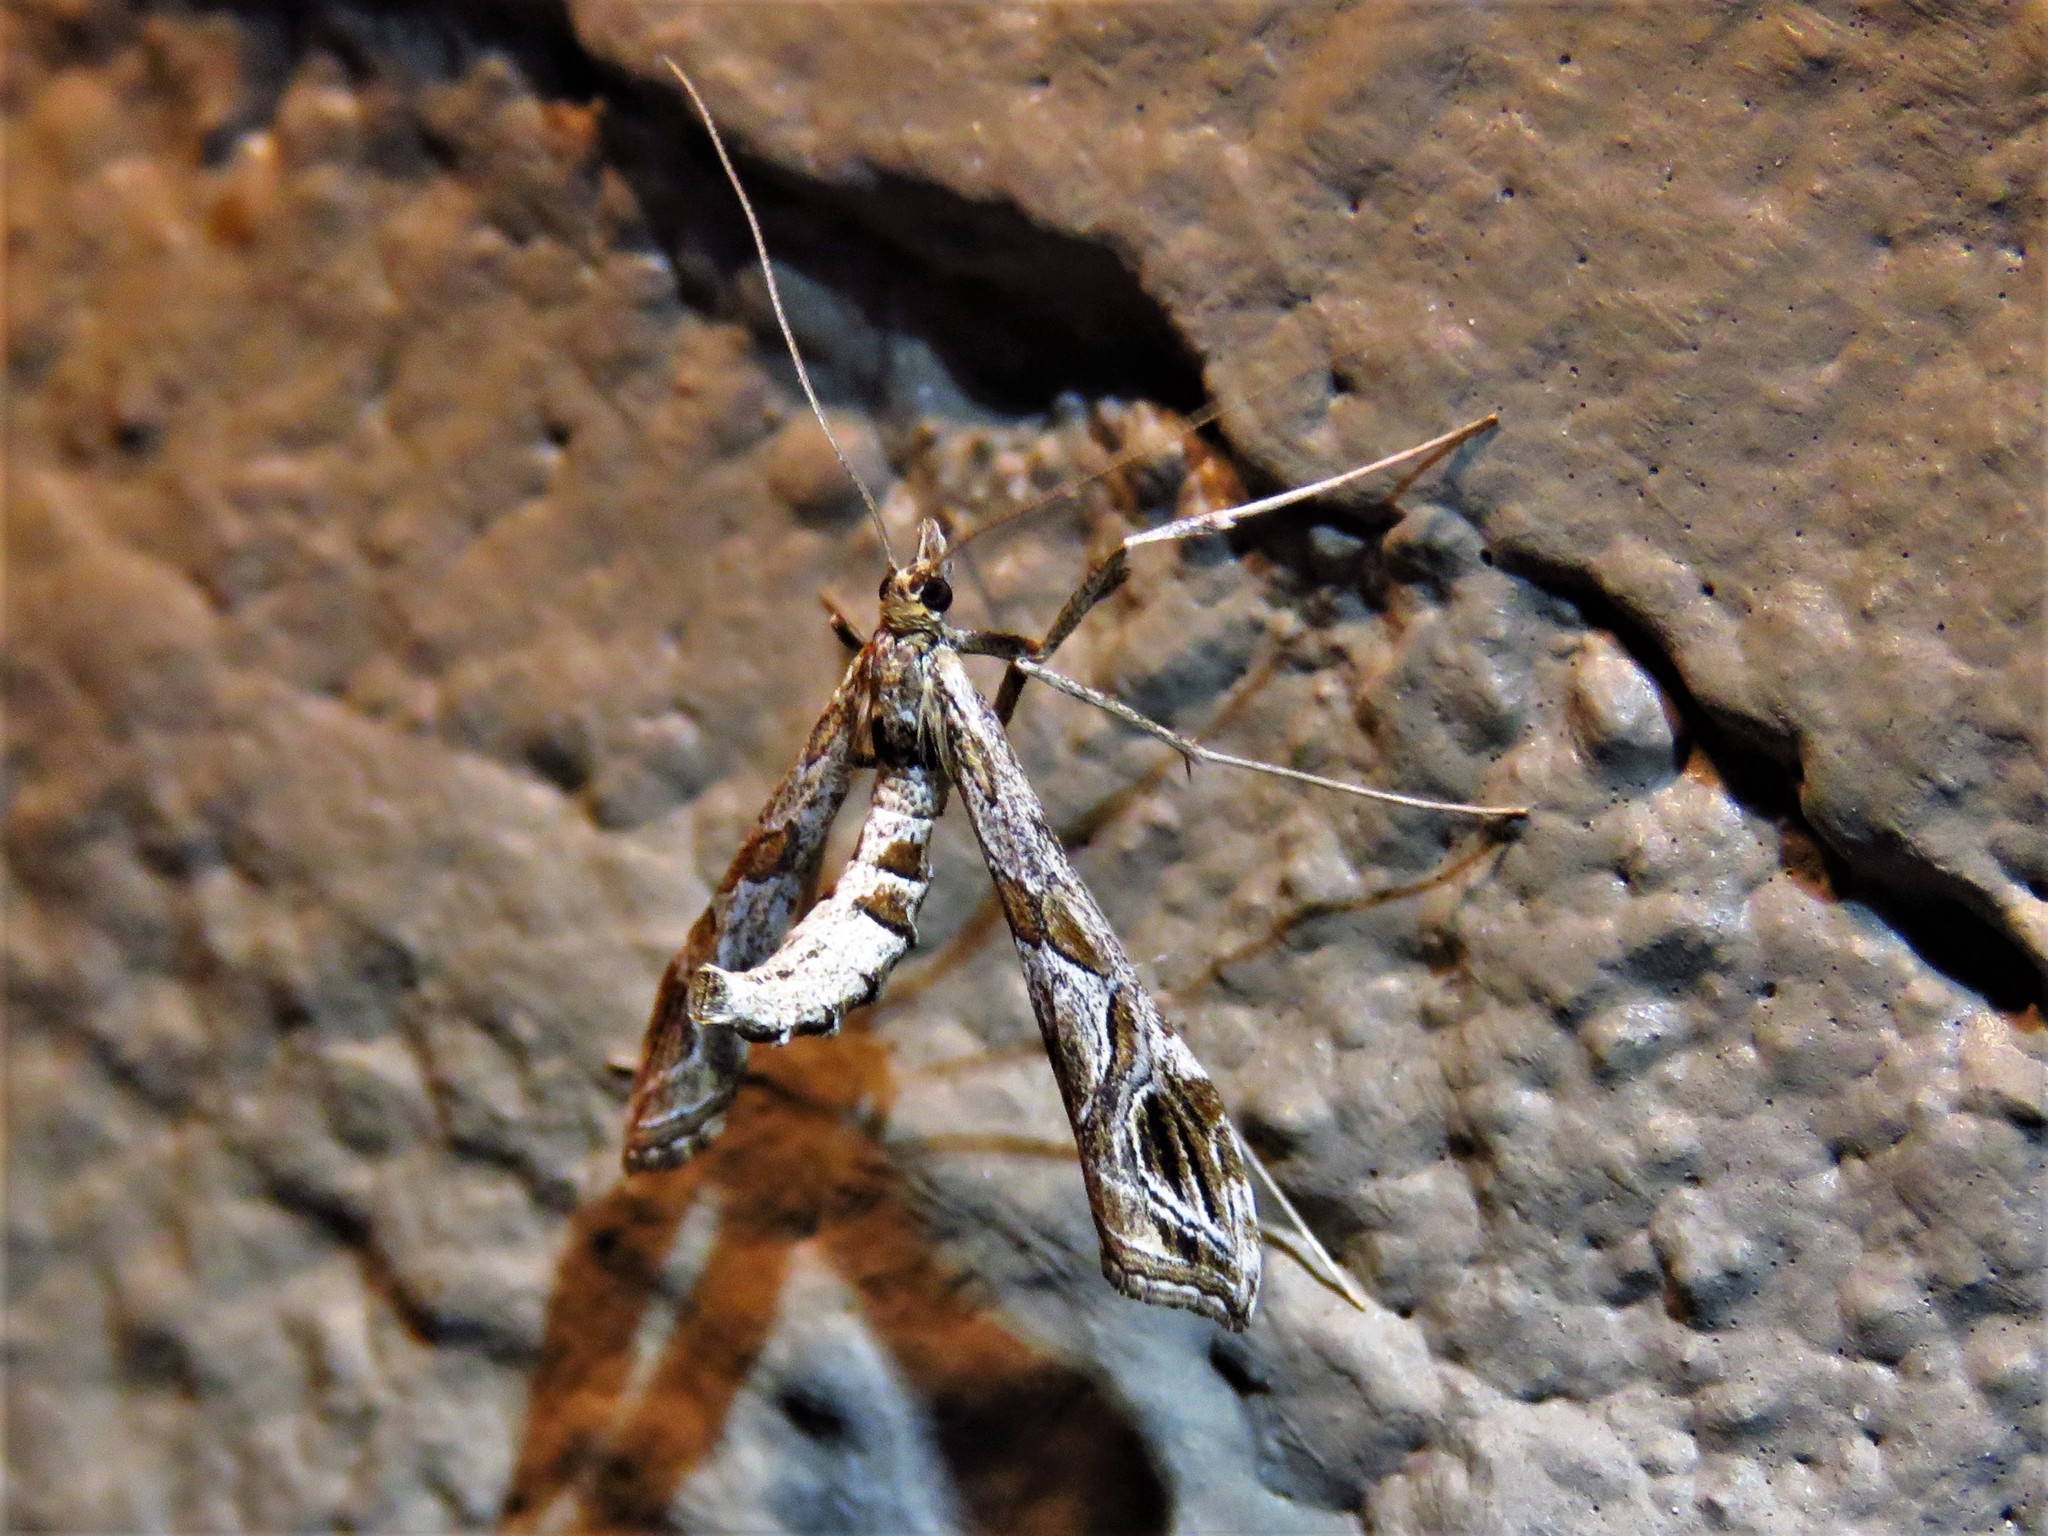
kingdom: Animalia
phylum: Arthropoda
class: Insecta
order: Lepidoptera
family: Crambidae
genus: Lineodes
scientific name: Lineodes interrupta
